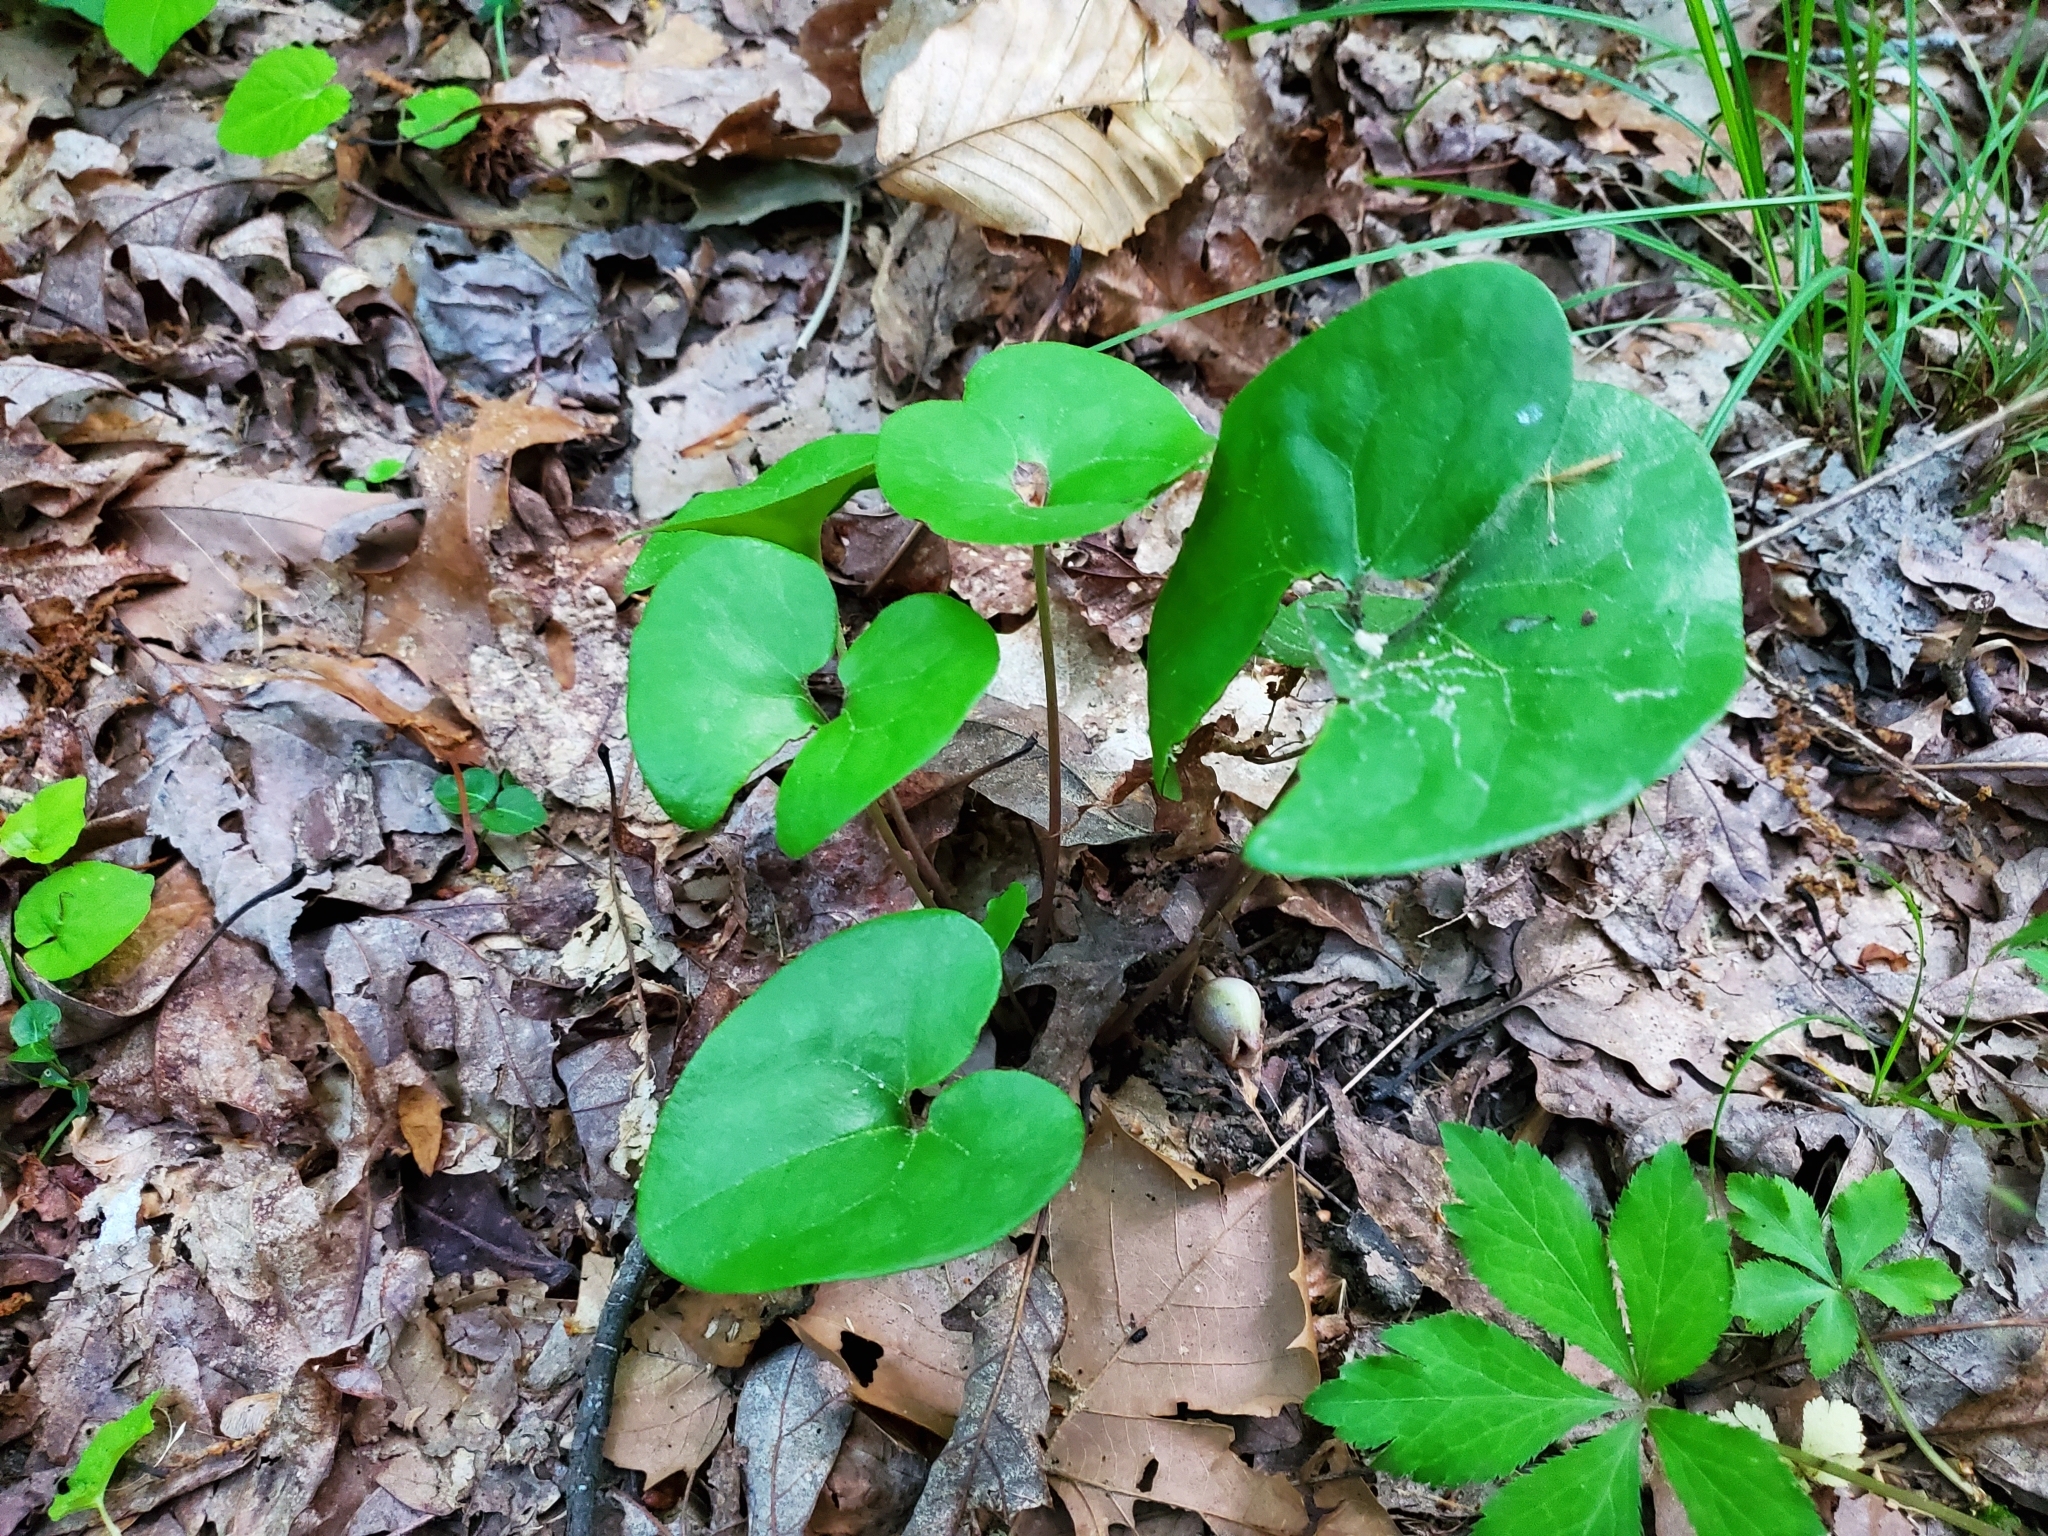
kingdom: Plantae
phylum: Tracheophyta
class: Magnoliopsida
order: Piperales
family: Aristolochiaceae
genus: Hexastylis
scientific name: Hexastylis arifolia
